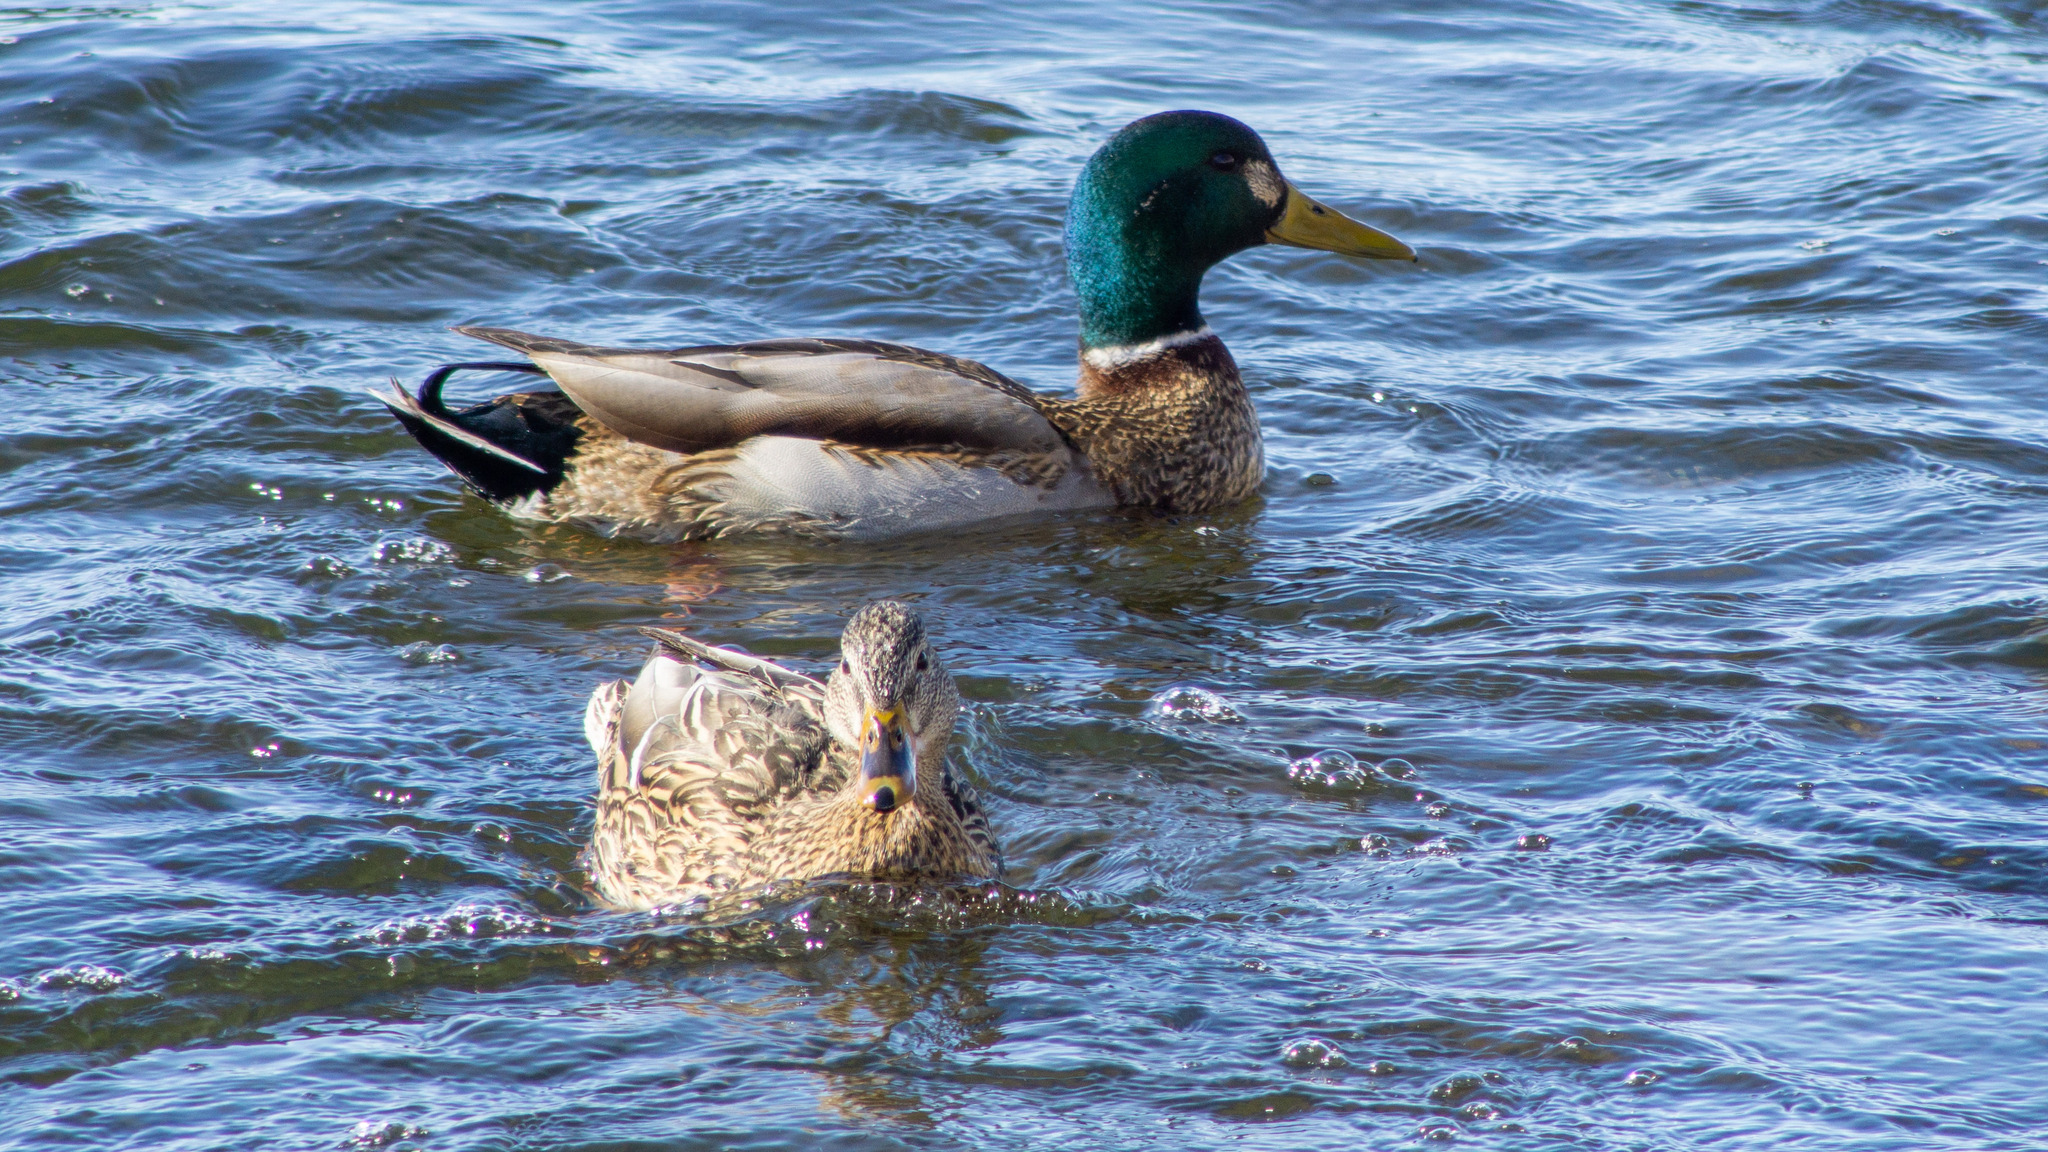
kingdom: Animalia
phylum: Chordata
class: Aves
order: Anseriformes
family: Anatidae
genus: Anas
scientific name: Anas platyrhynchos
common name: Mallard
